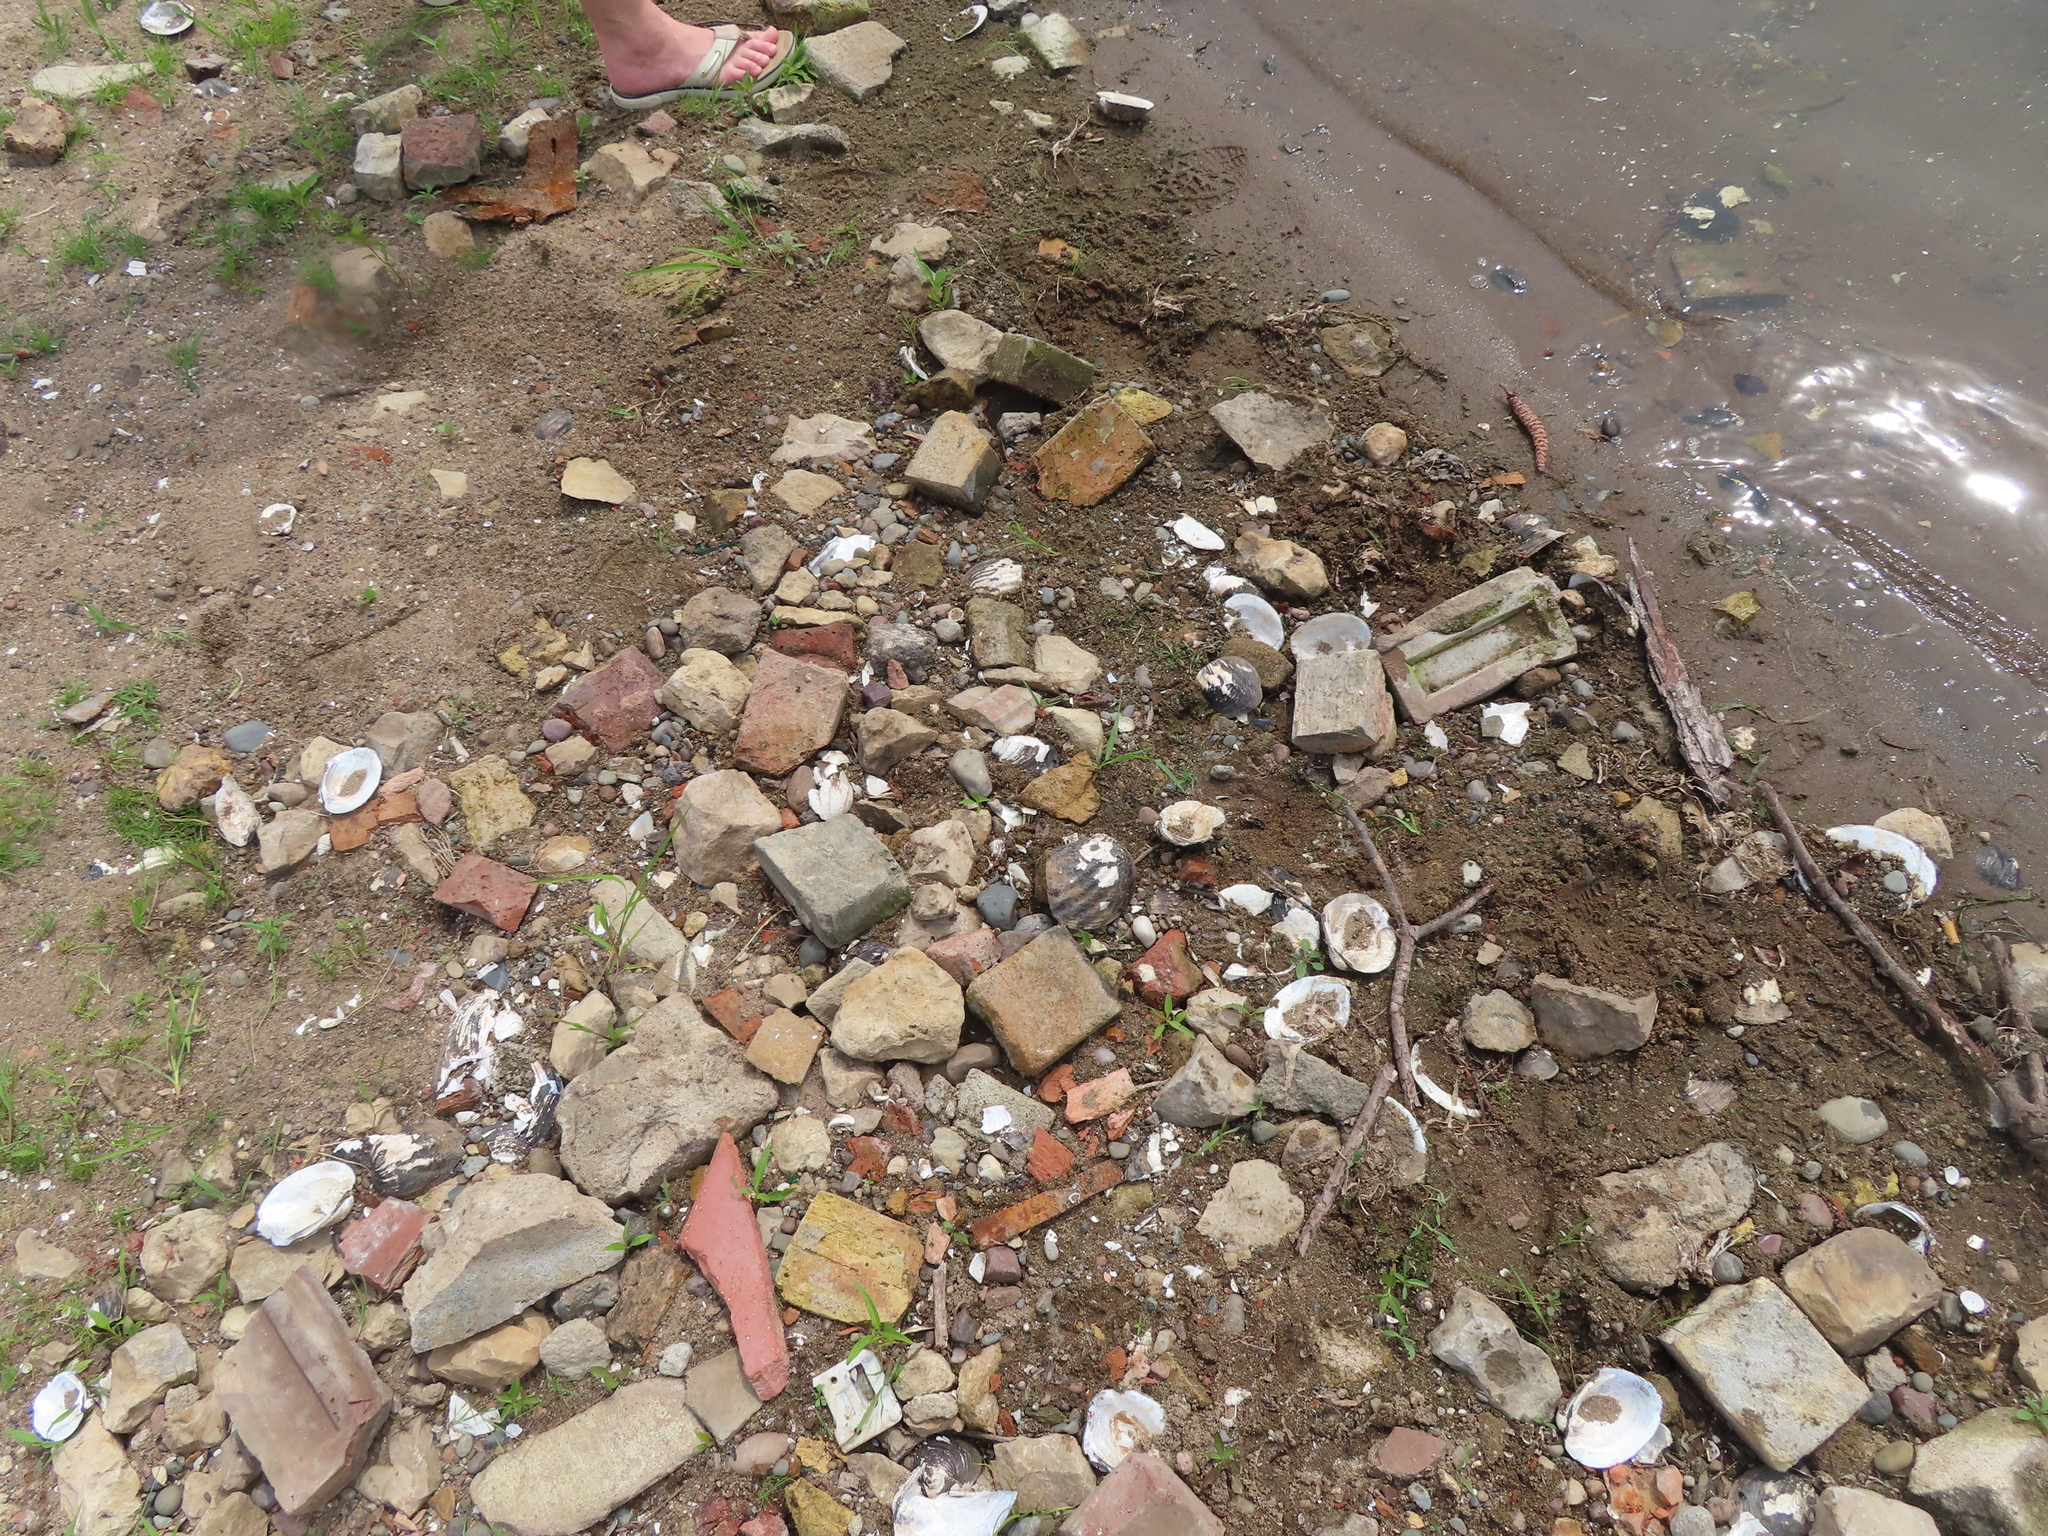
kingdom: Animalia
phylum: Mollusca
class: Bivalvia
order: Unionida
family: Unionidae
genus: Lampsilis
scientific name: Lampsilis cardium
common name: Plain pocketbook
